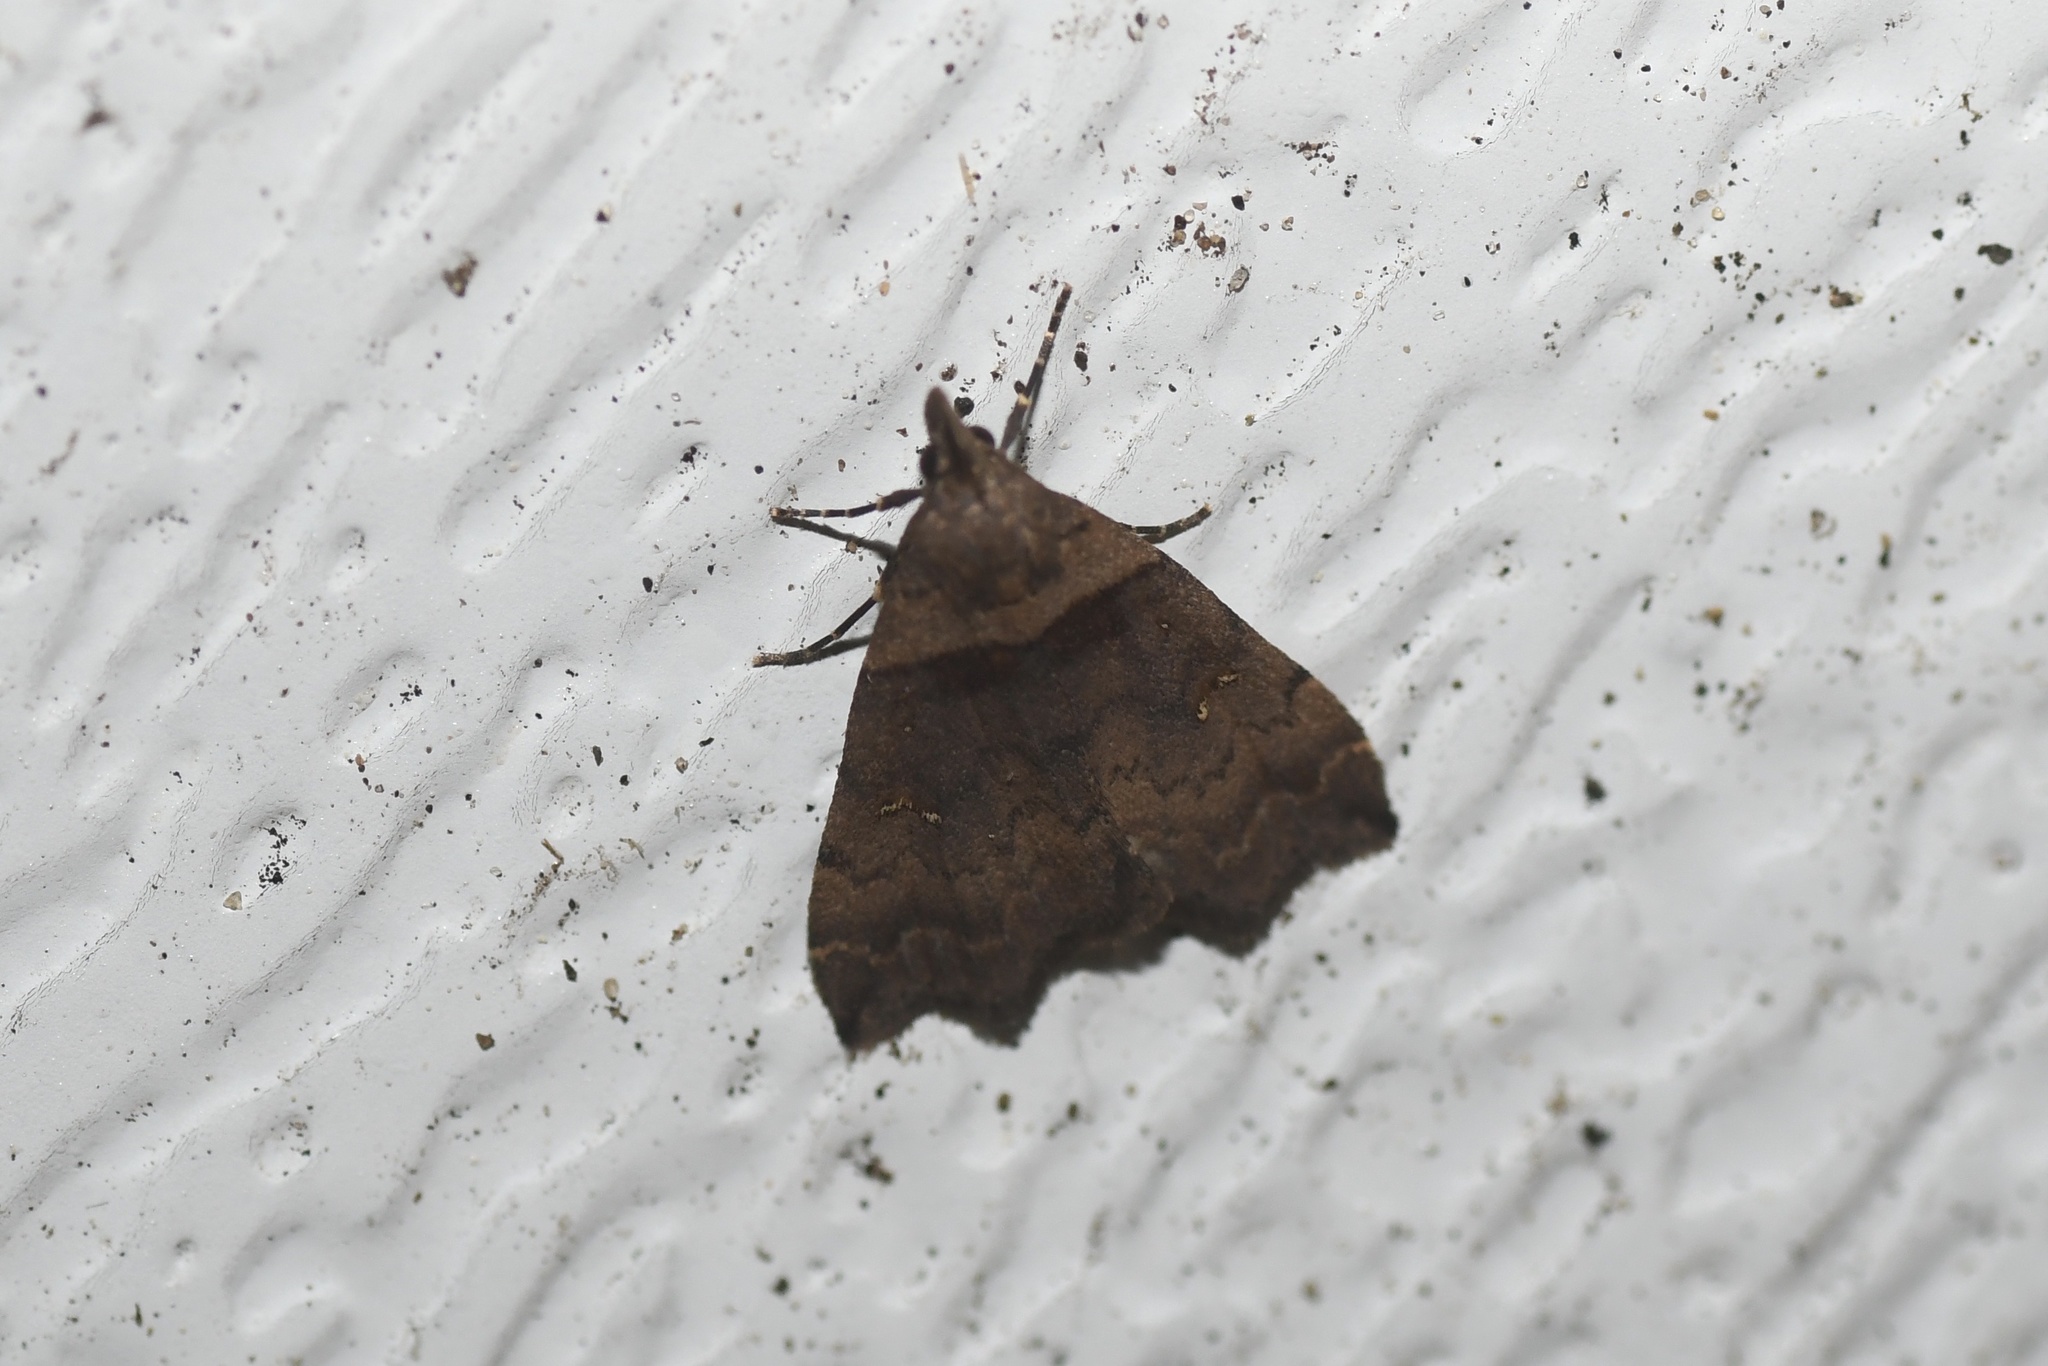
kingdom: Animalia
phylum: Arthropoda
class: Insecta
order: Lepidoptera
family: Erebidae
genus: Lascoria
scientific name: Lascoria ambigualis
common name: Ambiguous moth
